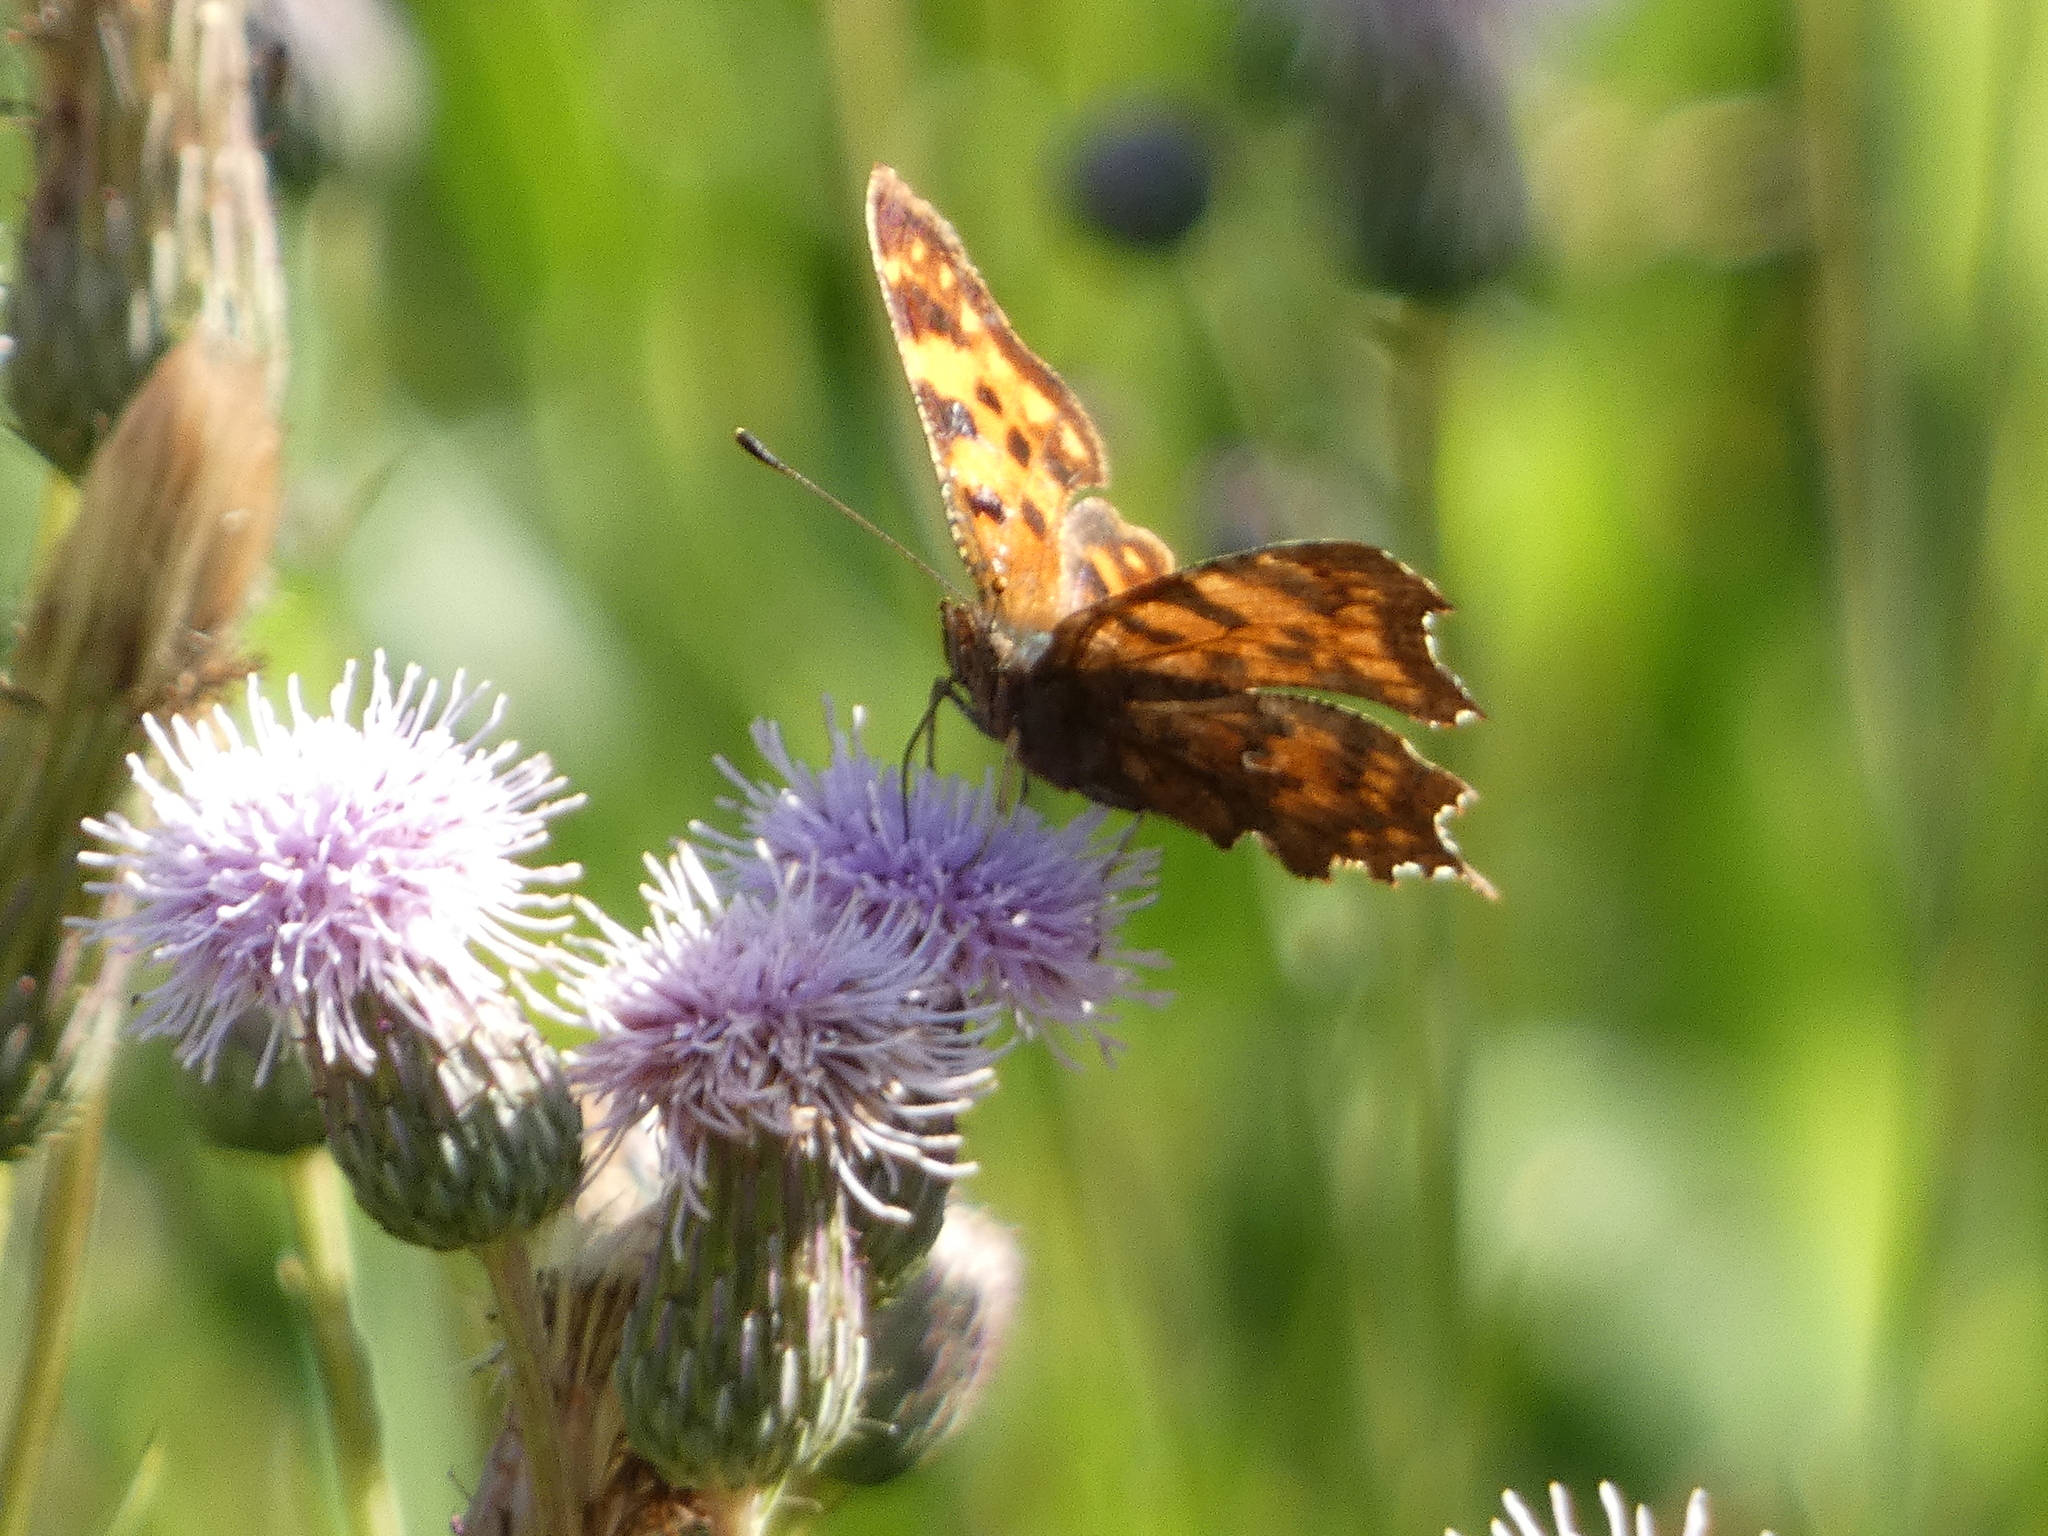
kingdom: Animalia
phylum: Arthropoda
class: Insecta
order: Lepidoptera
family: Nymphalidae
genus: Polygonia
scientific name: Polygonia c-album
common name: Comma
